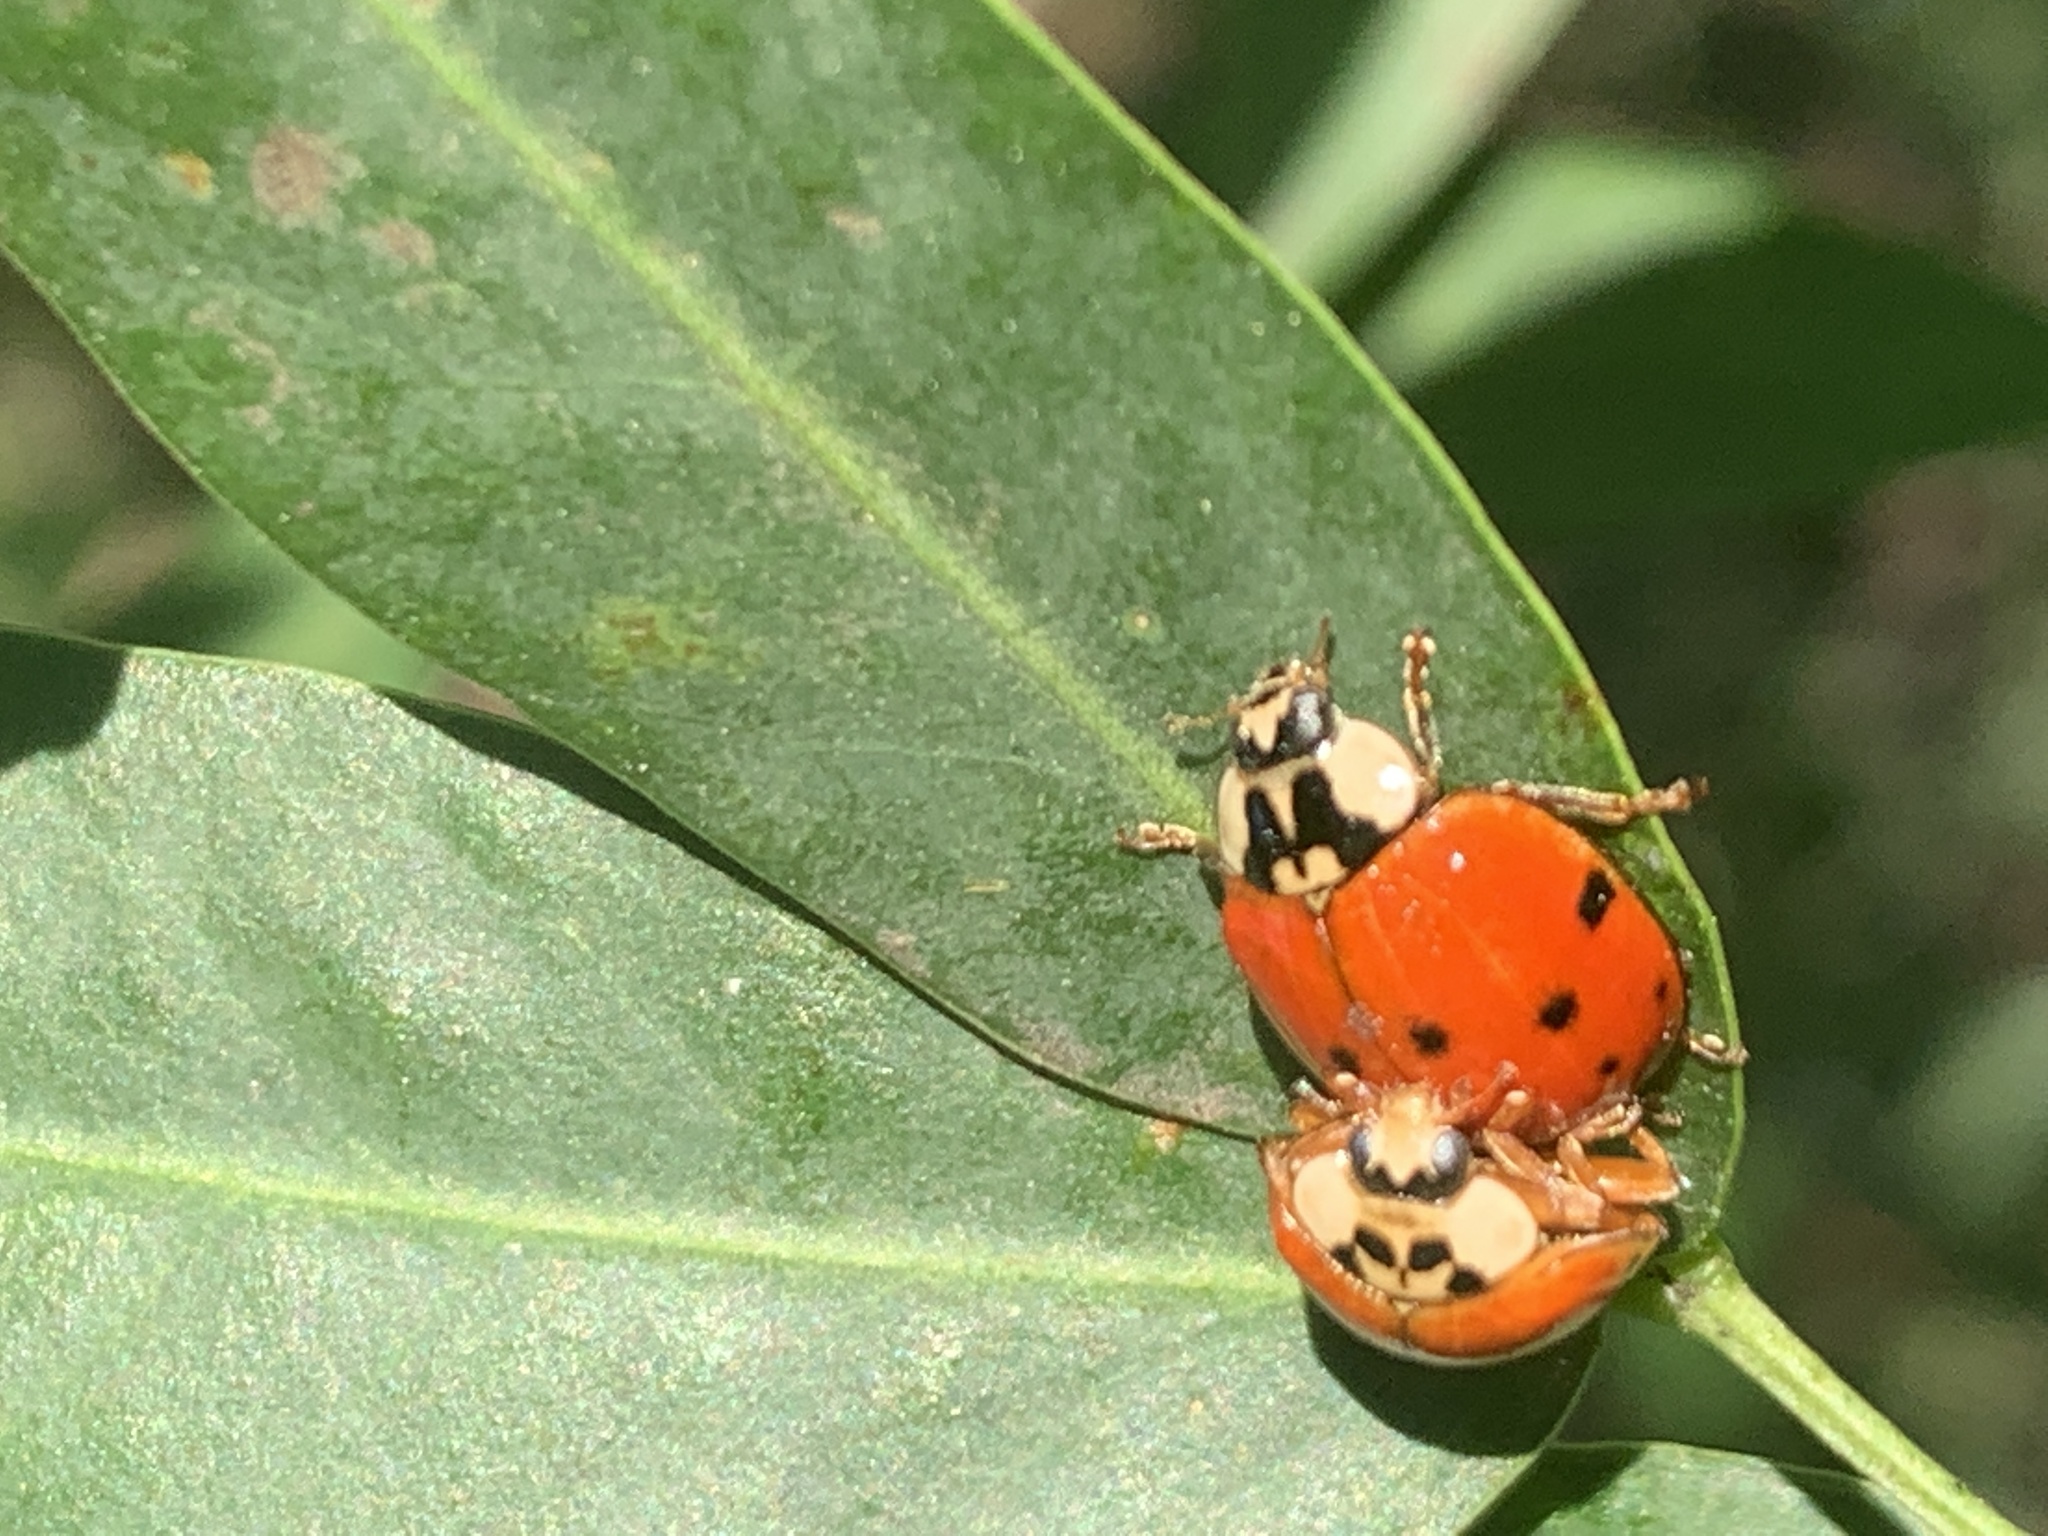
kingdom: Animalia
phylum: Arthropoda
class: Insecta
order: Coleoptera
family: Coccinellidae
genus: Harmonia
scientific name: Harmonia axyridis
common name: Harlequin ladybird
